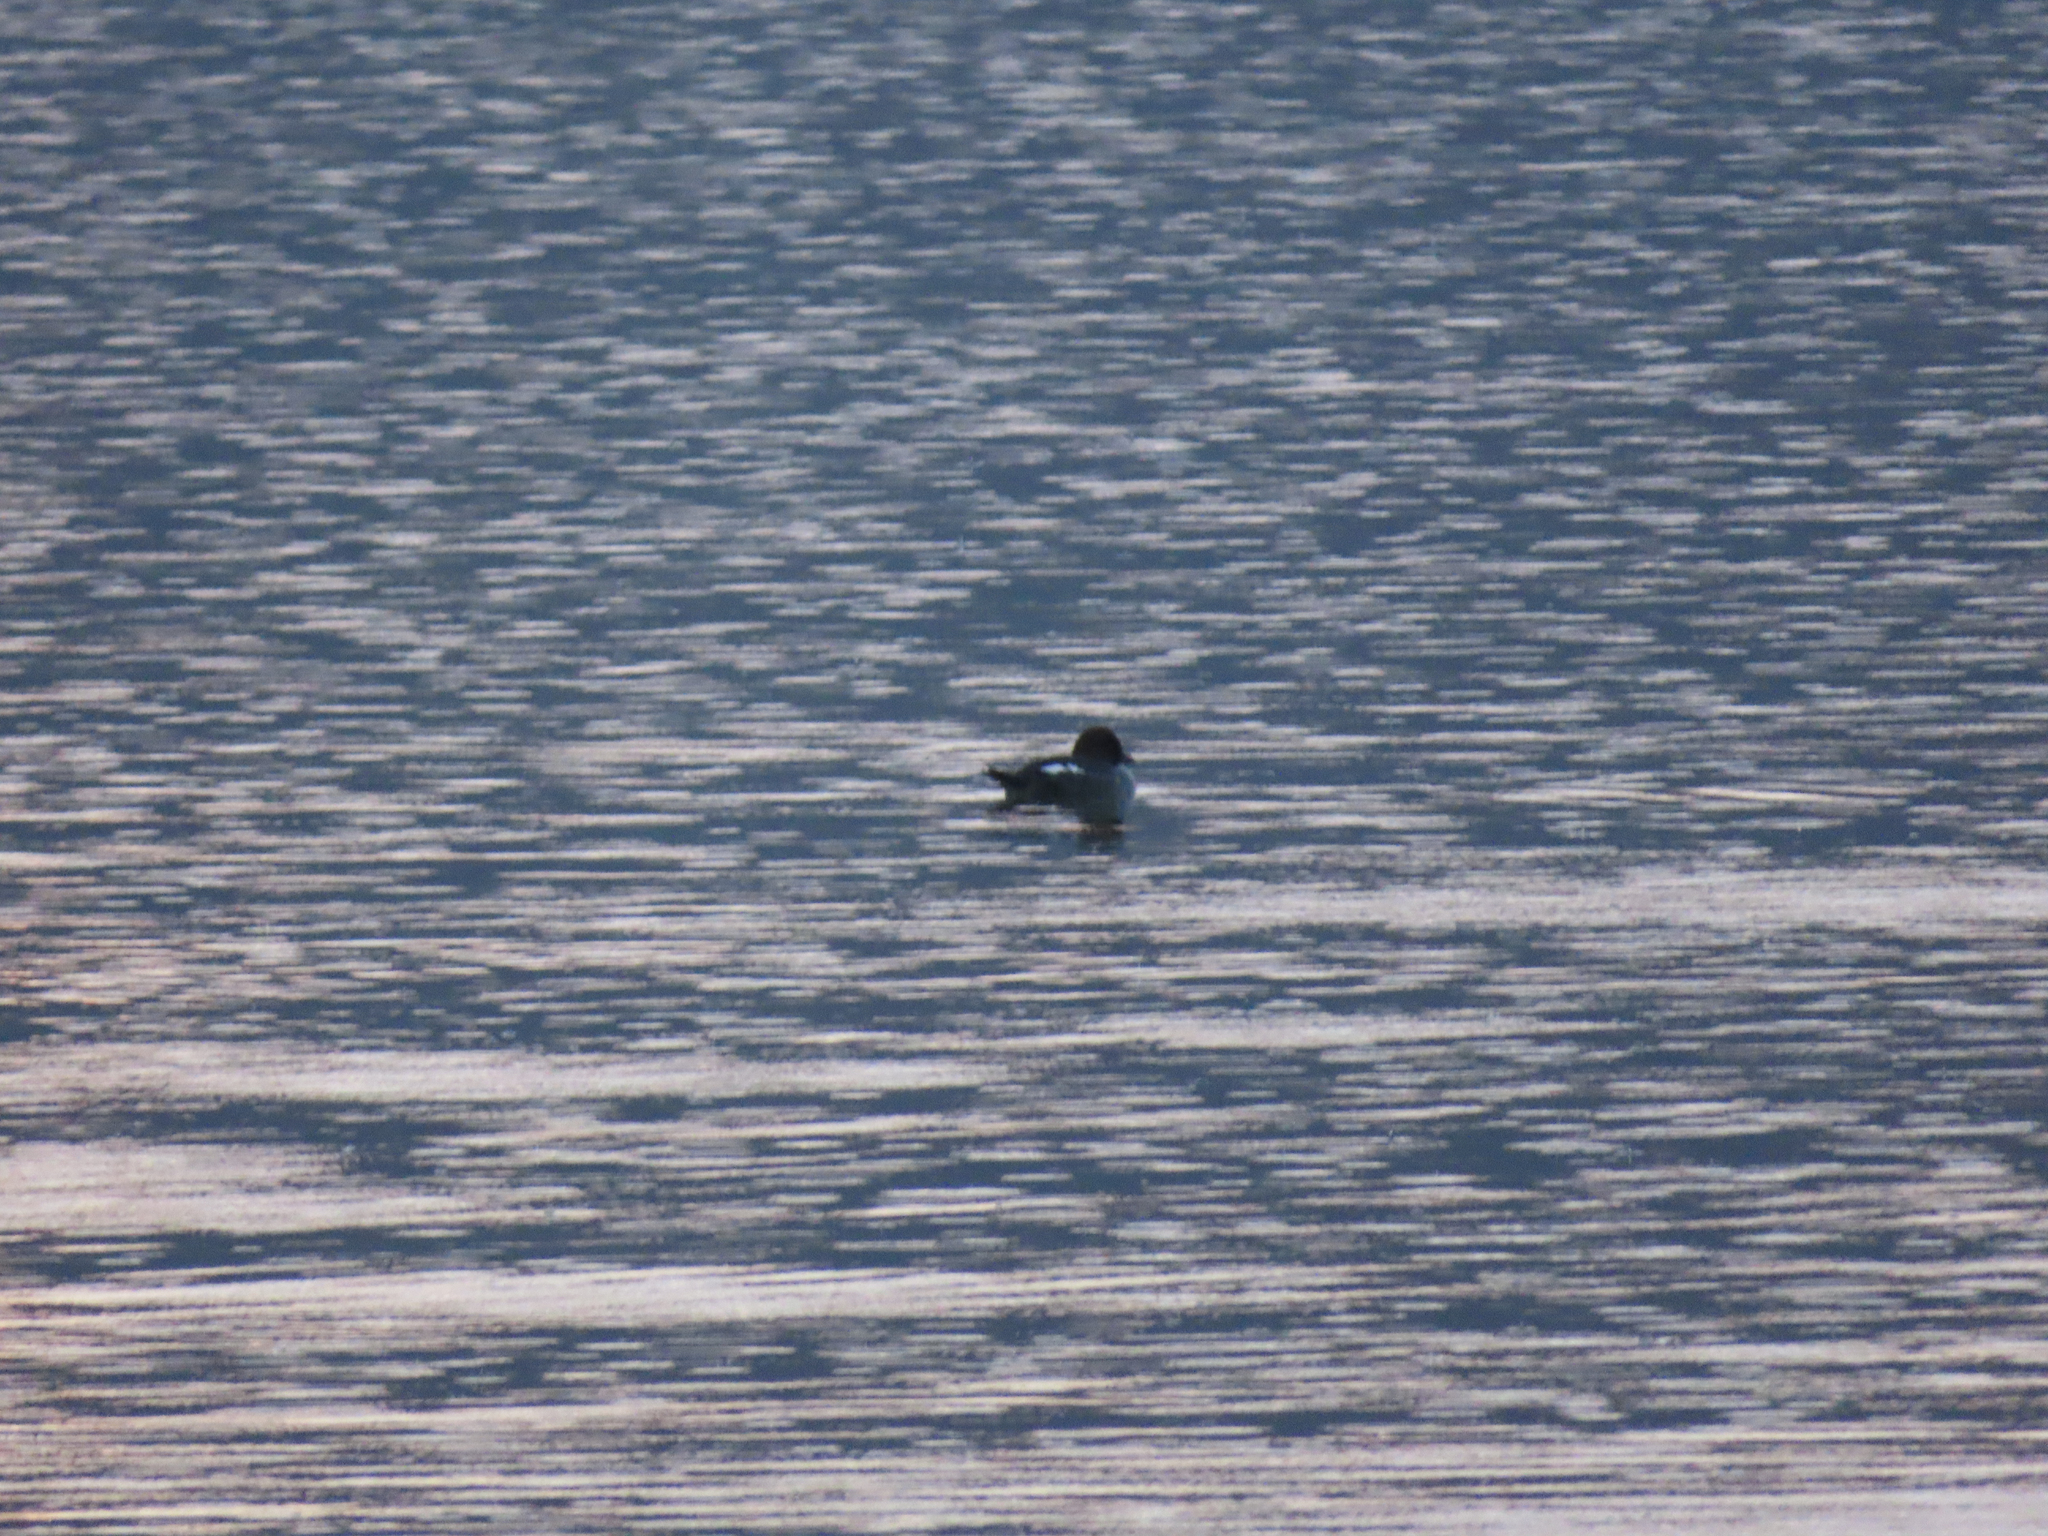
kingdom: Animalia
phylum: Chordata
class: Aves
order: Anseriformes
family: Anatidae
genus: Bucephala
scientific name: Bucephala clangula
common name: Common goldeneye
